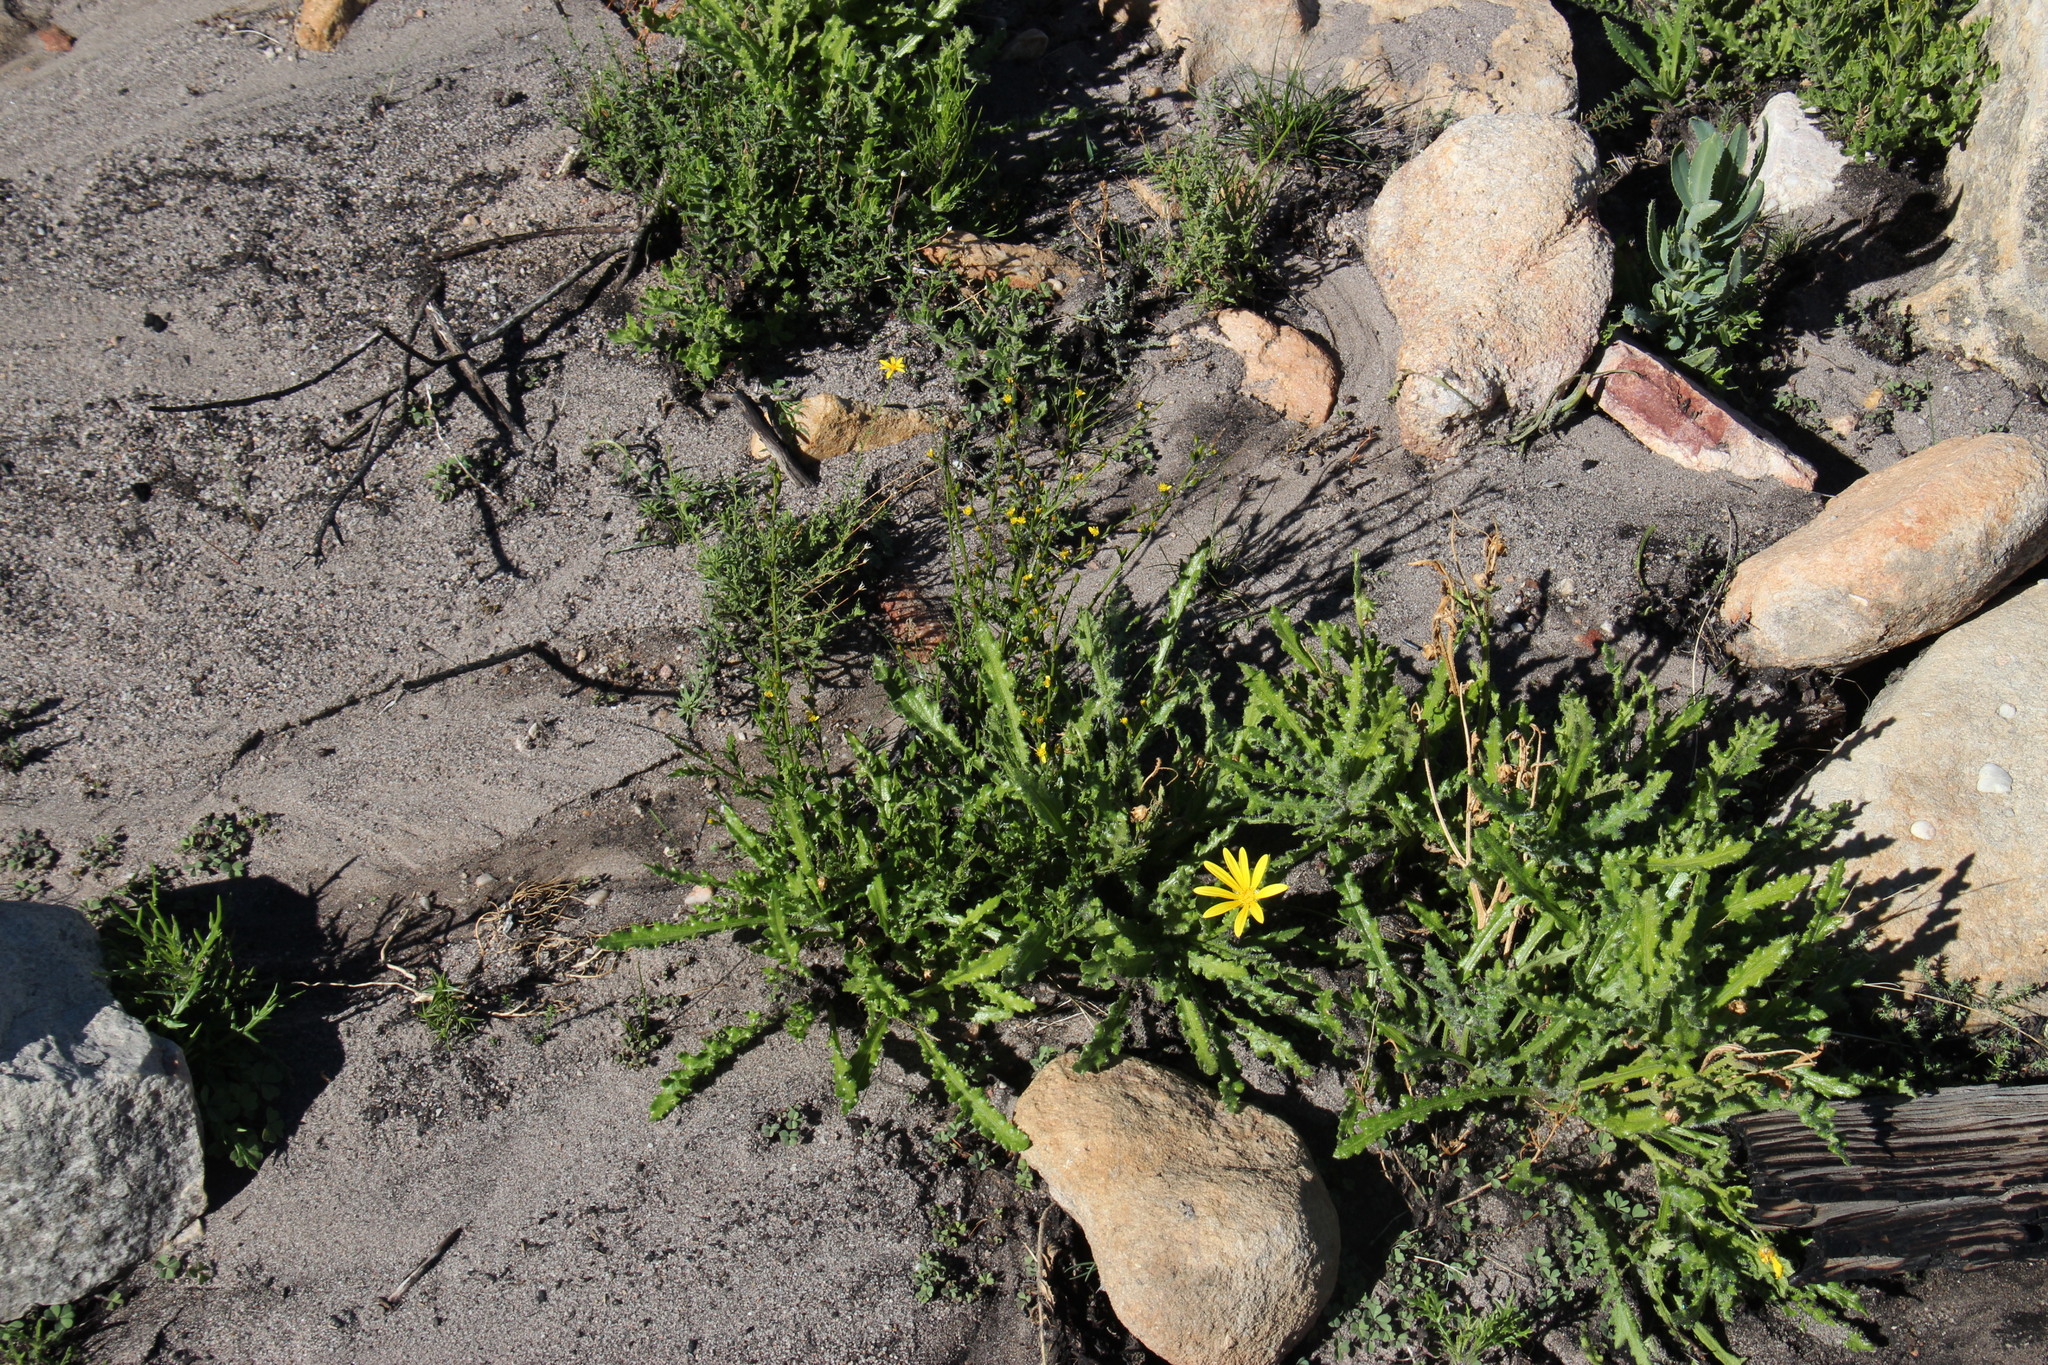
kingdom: Plantae
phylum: Tracheophyta
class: Magnoliopsida
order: Asterales
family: Asteraceae
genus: Senecio
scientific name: Senecio pubigerus
